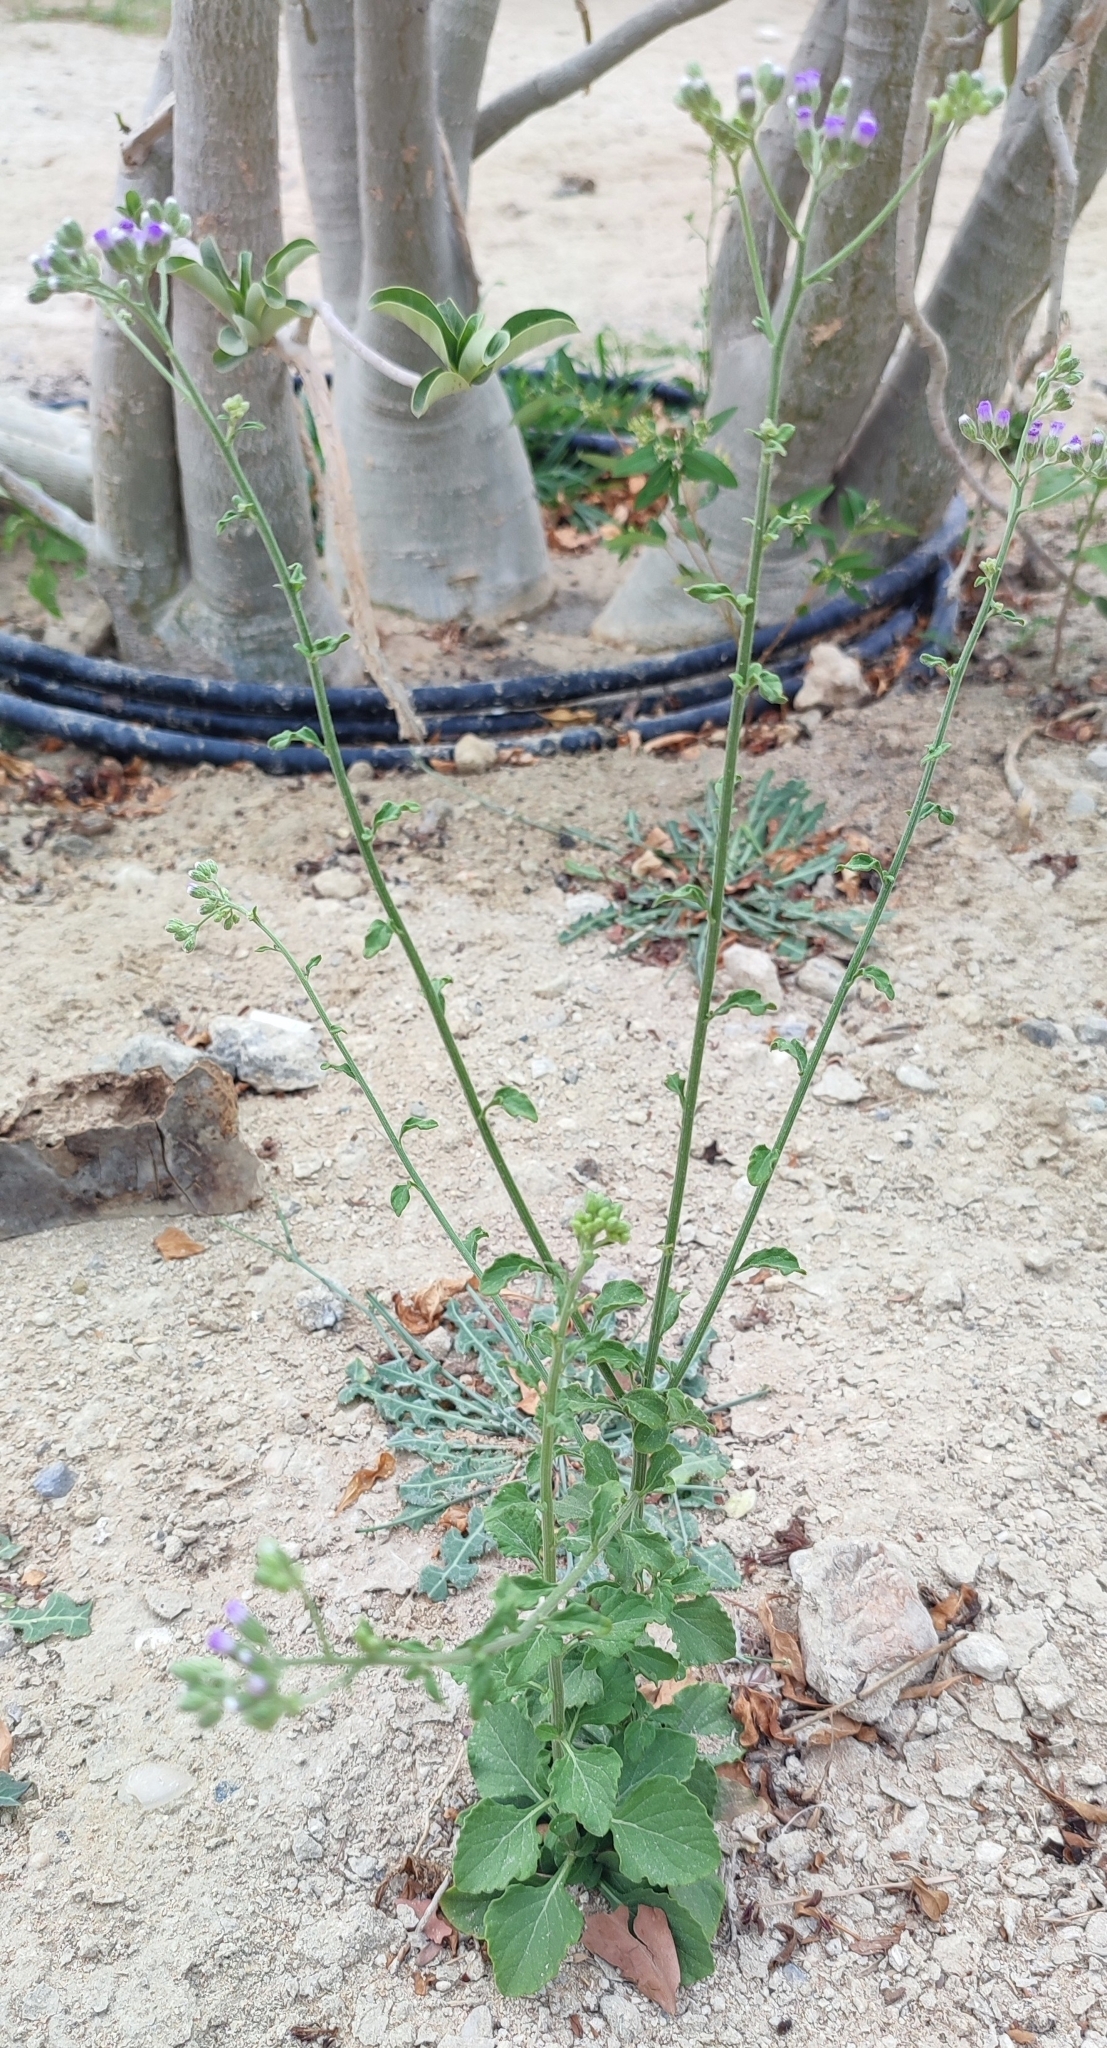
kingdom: Plantae
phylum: Tracheophyta
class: Magnoliopsida
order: Asterales
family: Asteraceae
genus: Cyanthillium
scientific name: Cyanthillium cinereum
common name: Little ironweed
